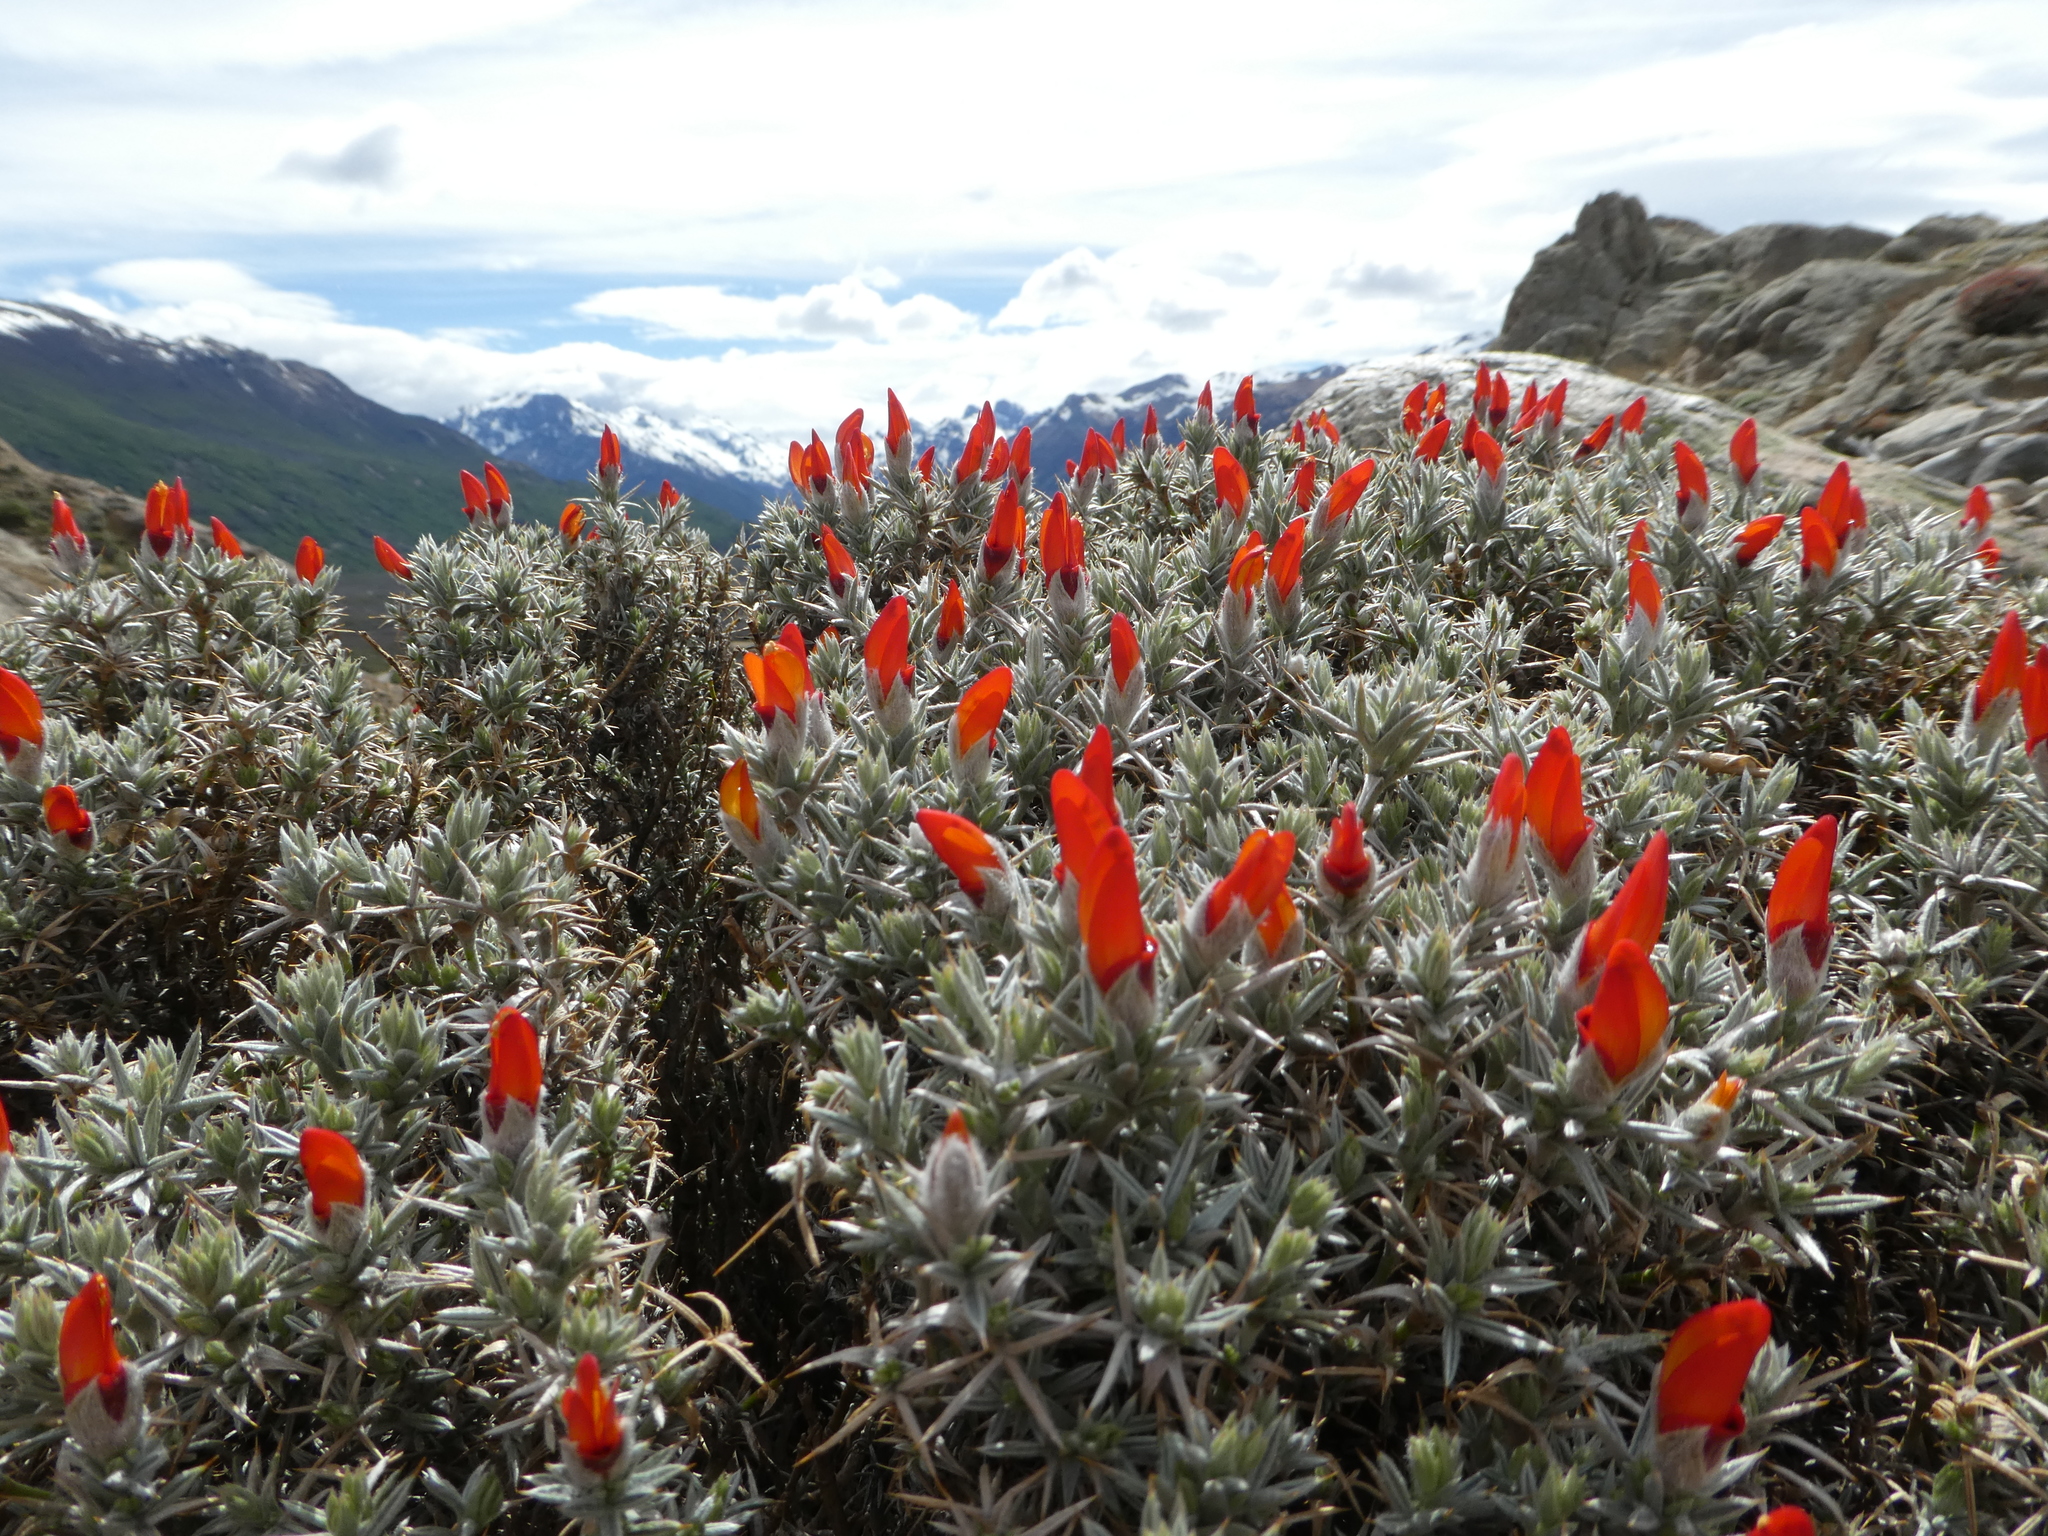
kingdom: Plantae
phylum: Tracheophyta
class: Magnoliopsida
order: Fabales
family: Fabaceae
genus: Anarthrophyllum
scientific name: Anarthrophyllum desideratum
